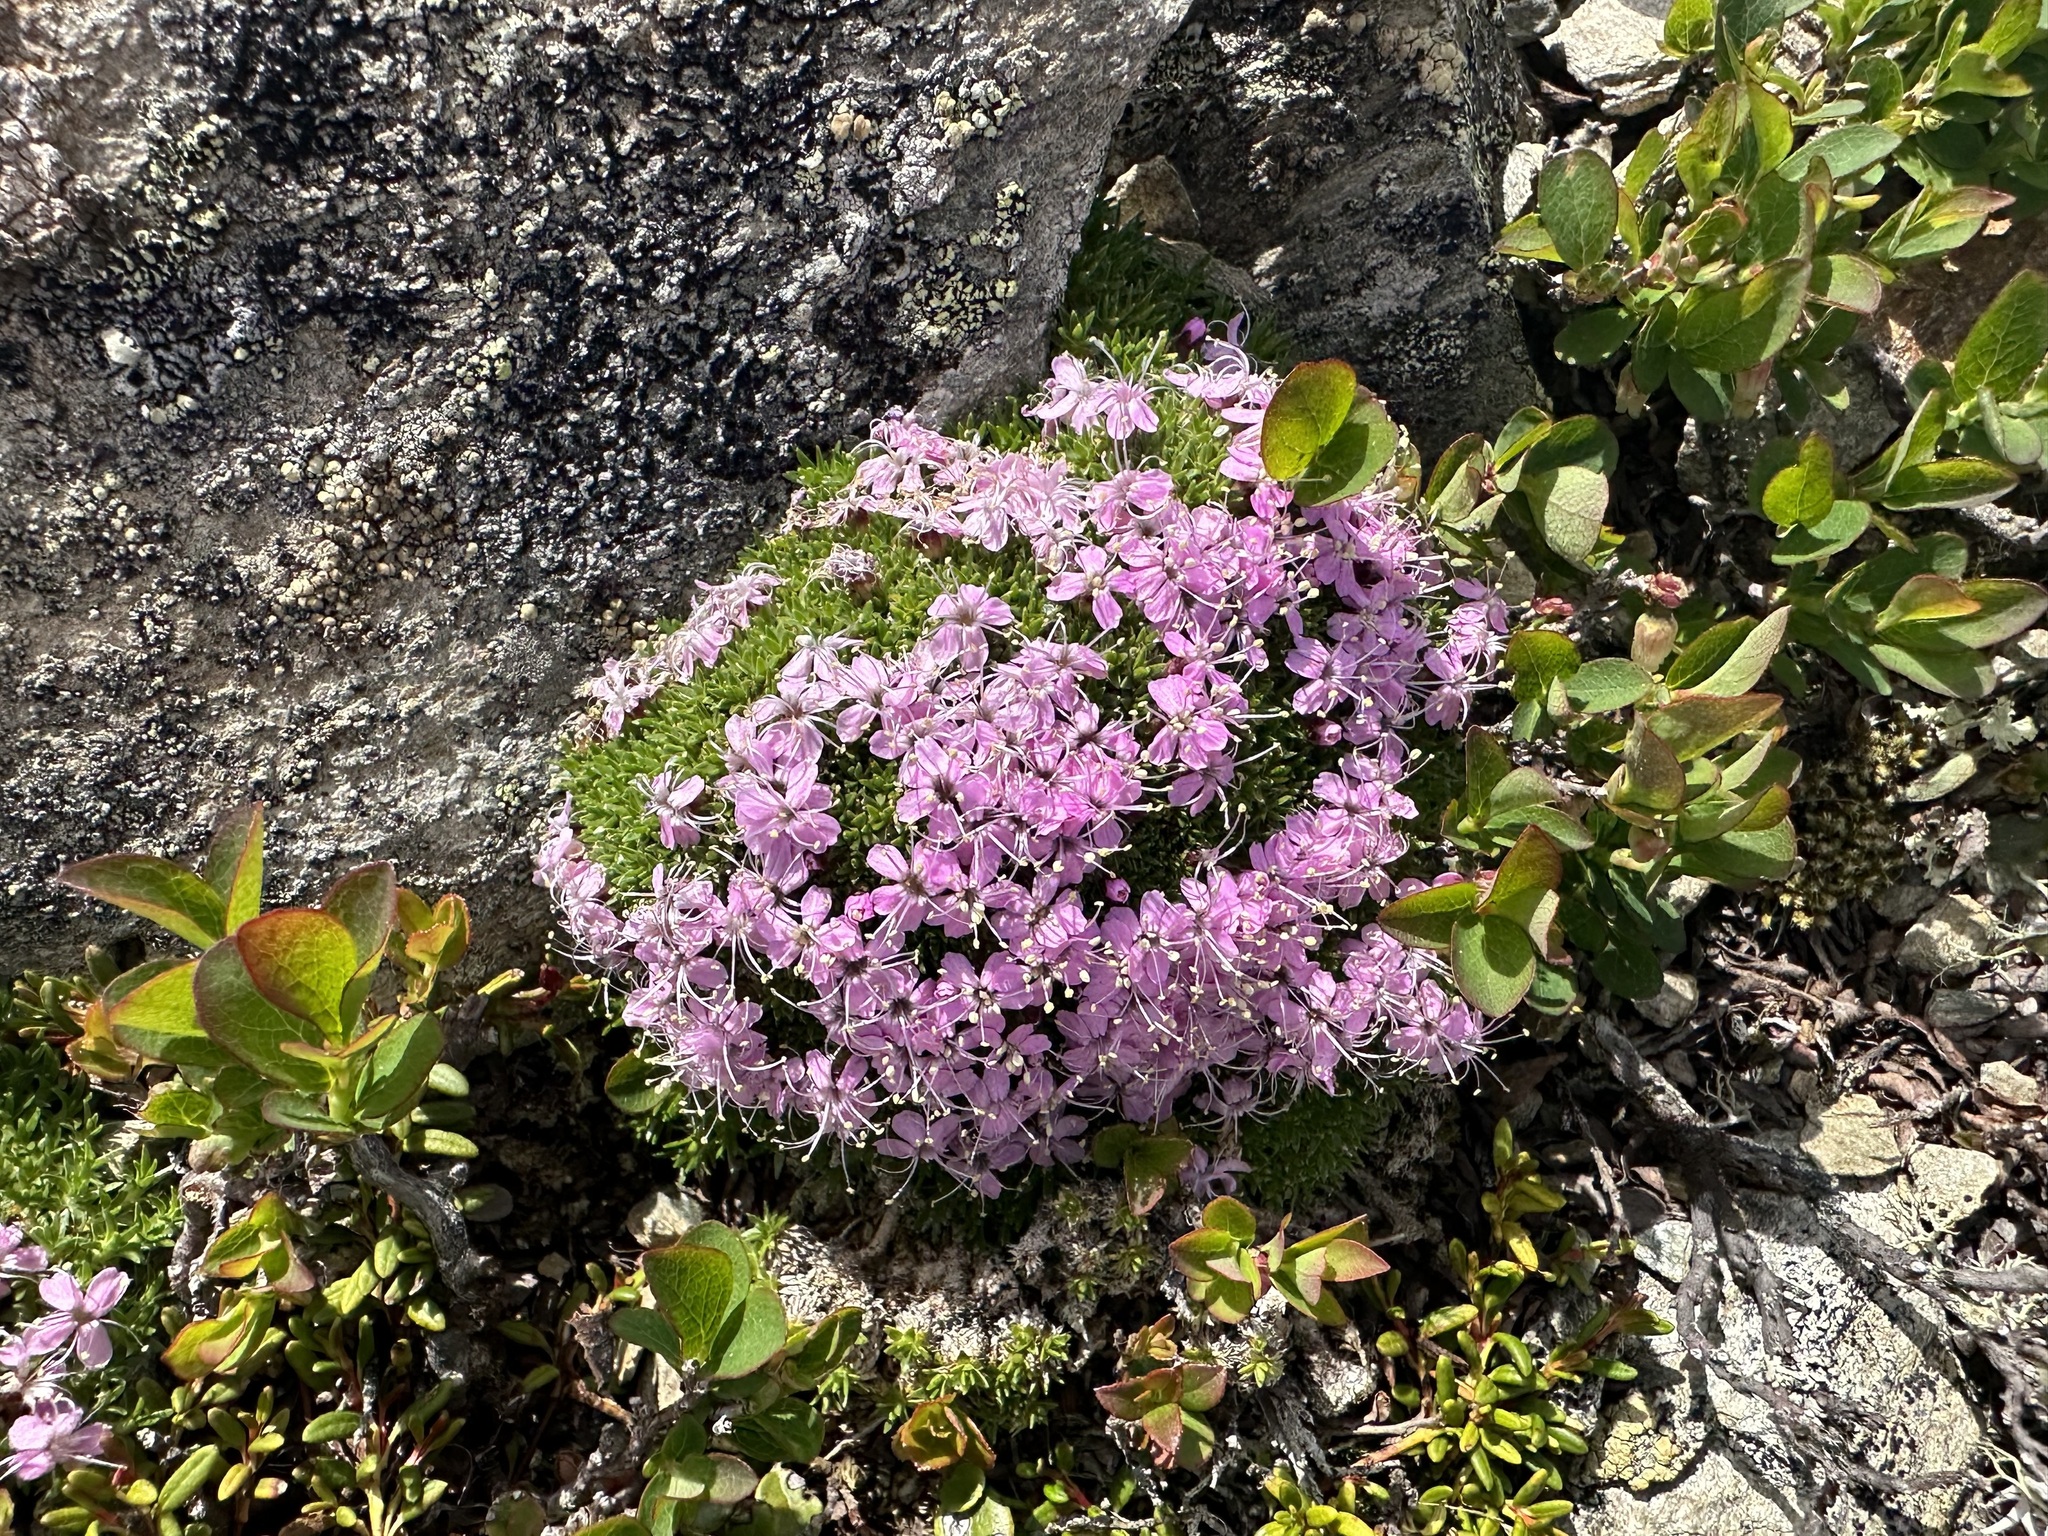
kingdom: Plantae
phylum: Tracheophyta
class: Magnoliopsida
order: Caryophyllales
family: Caryophyllaceae
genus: Silene
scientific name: Silene acaulis
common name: Moss campion
